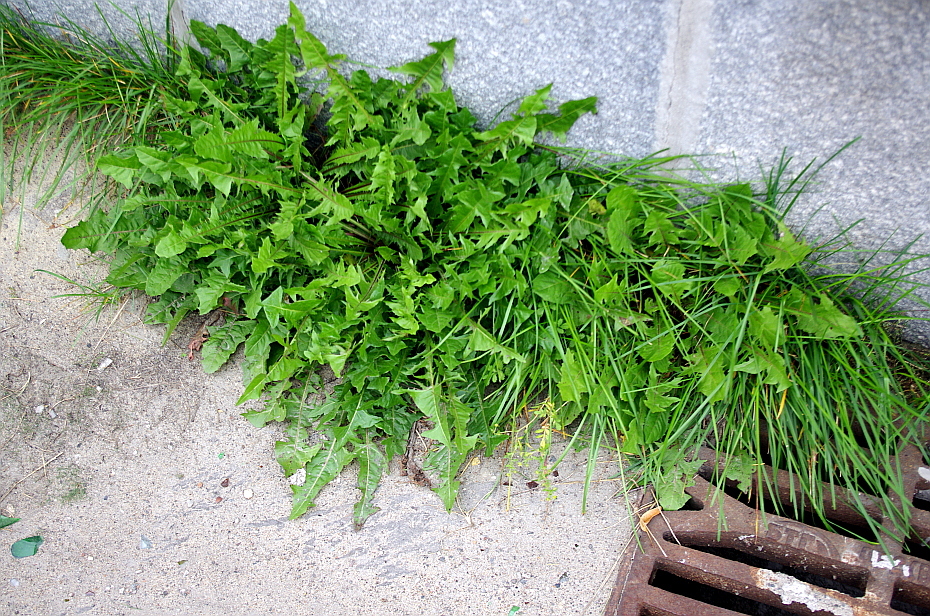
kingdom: Plantae
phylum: Tracheophyta
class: Magnoliopsida
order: Asterales
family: Asteraceae
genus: Taraxacum
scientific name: Taraxacum officinale
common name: Common dandelion
